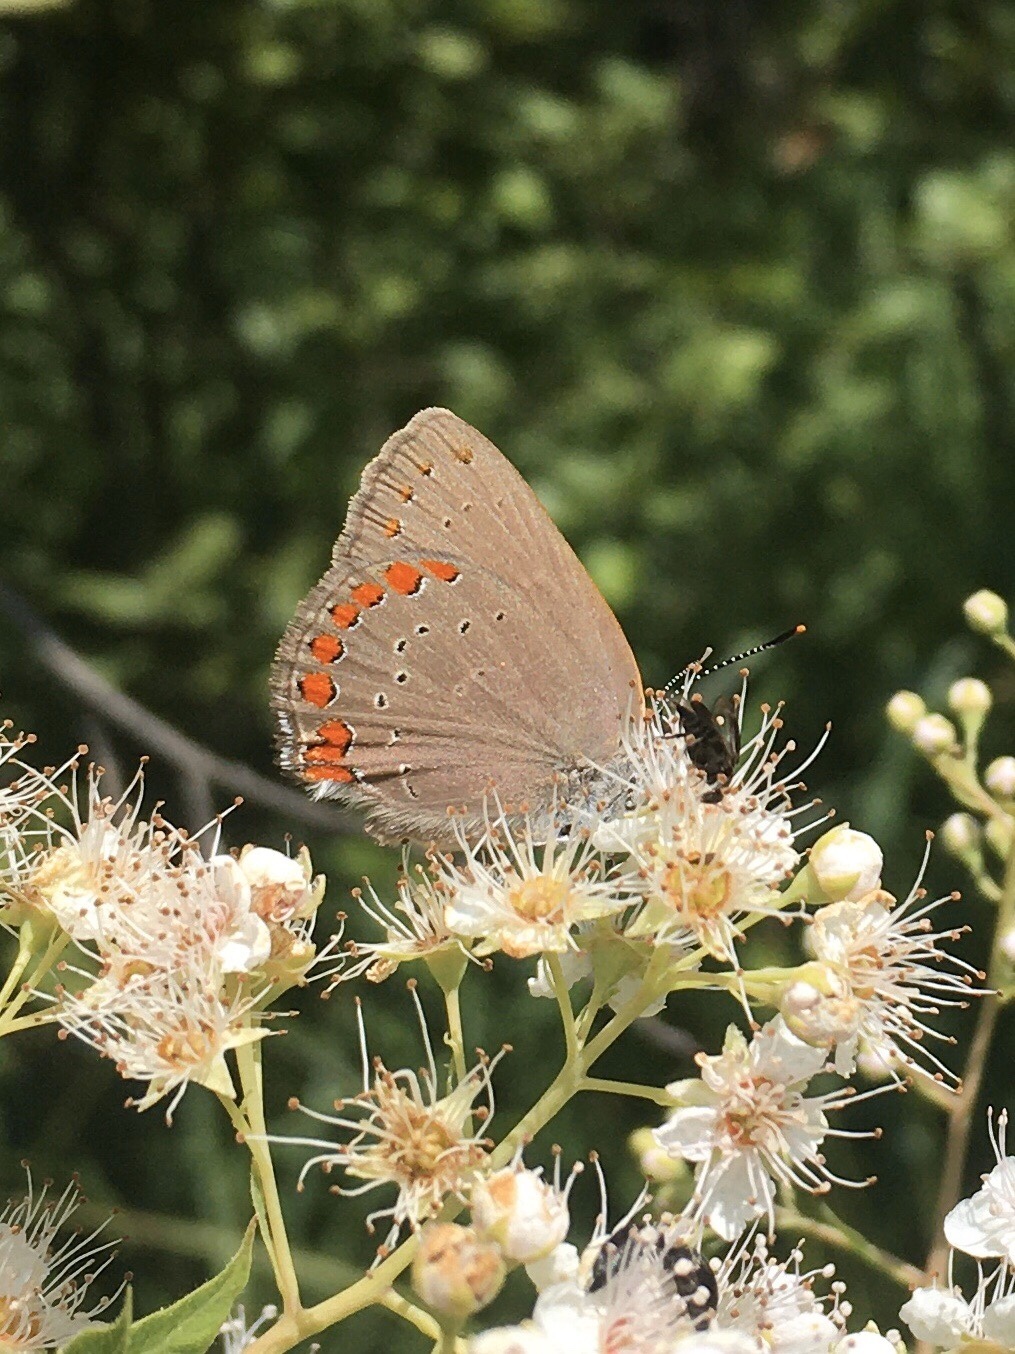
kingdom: Animalia
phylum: Arthropoda
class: Insecta
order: Lepidoptera
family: Lycaenidae
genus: Harkenclenus
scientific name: Harkenclenus titus
